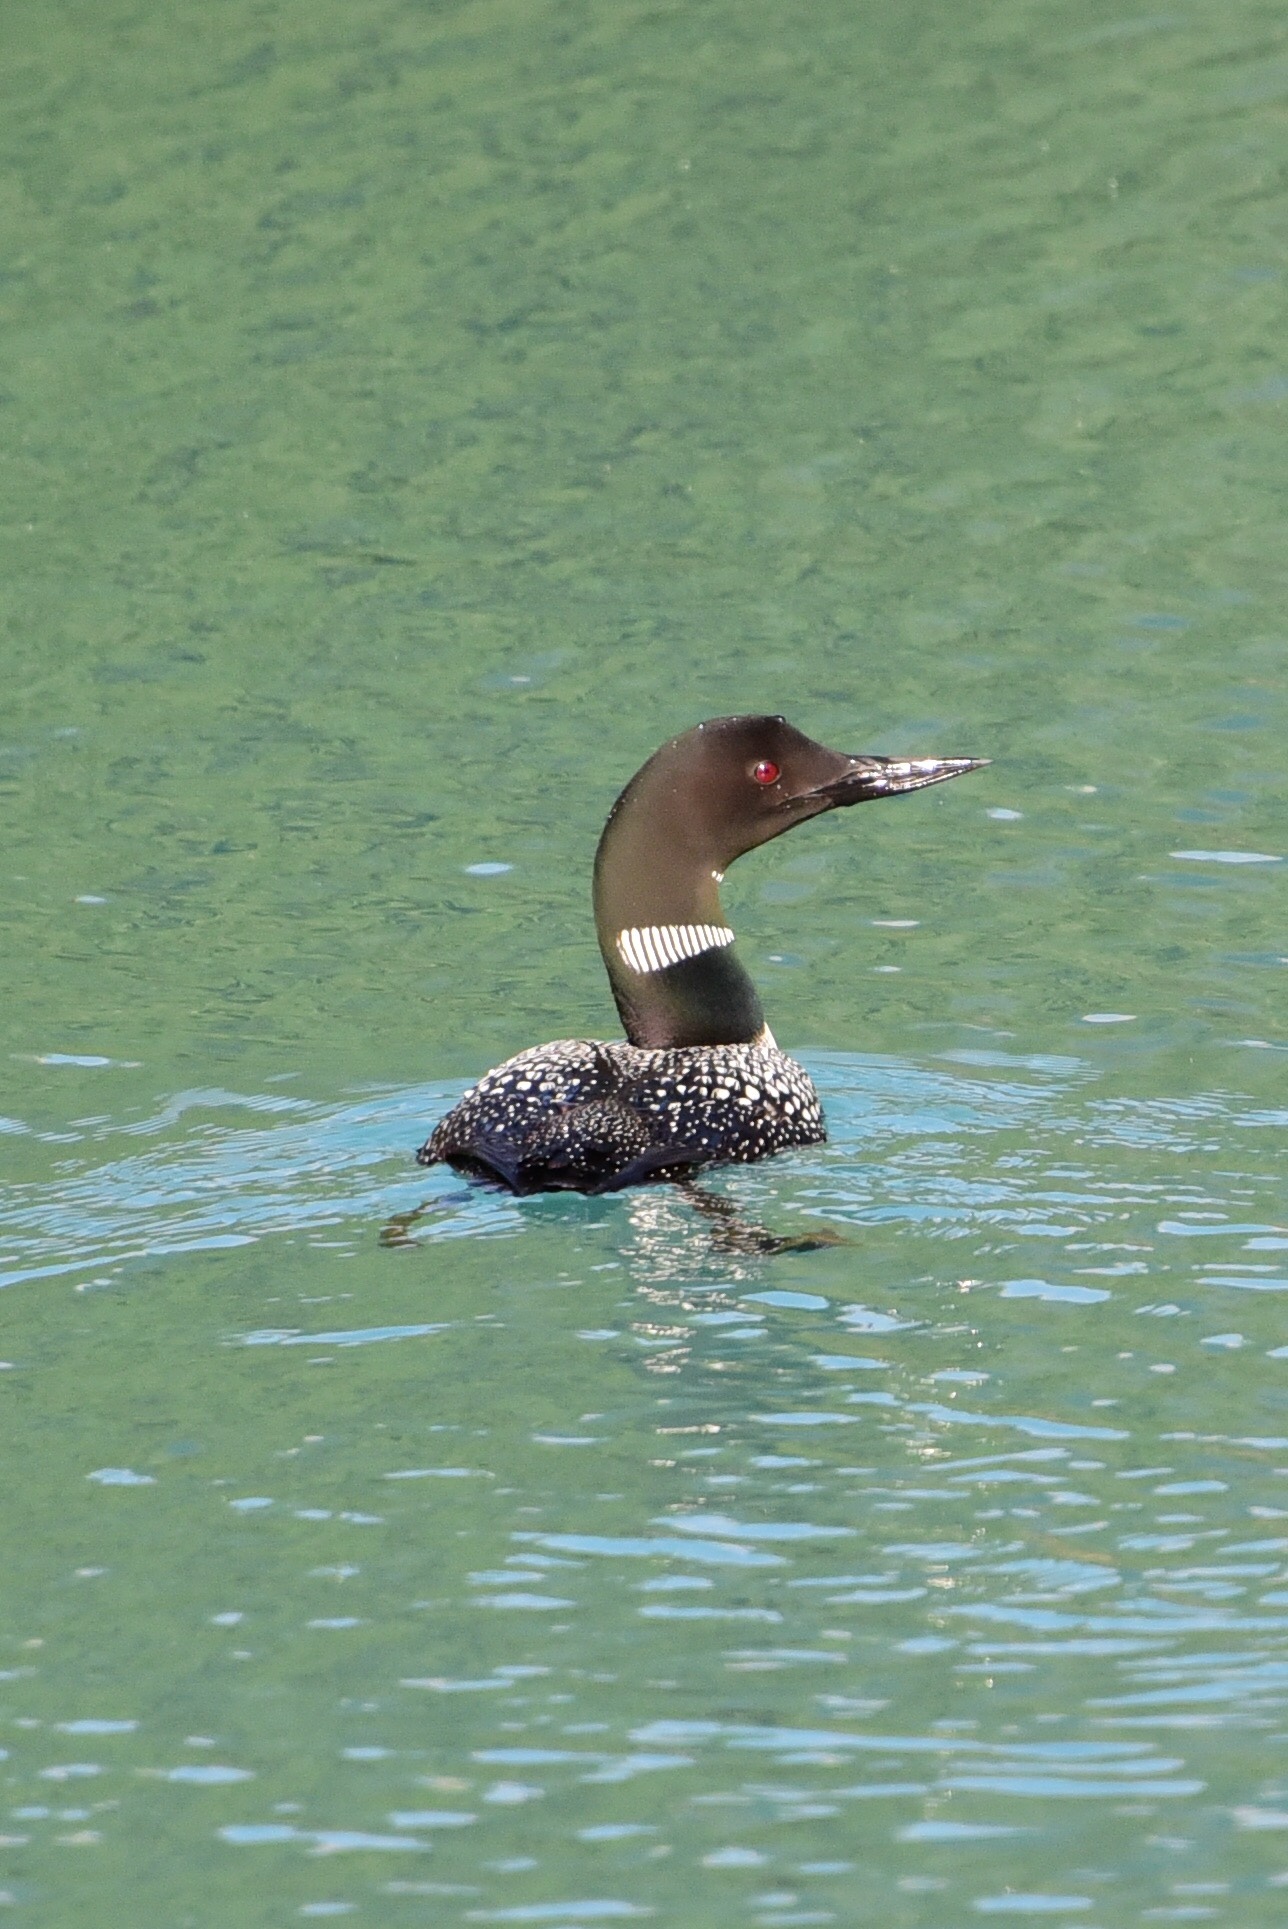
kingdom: Animalia
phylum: Chordata
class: Aves
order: Gaviiformes
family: Gaviidae
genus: Gavia
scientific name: Gavia immer
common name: Common loon
